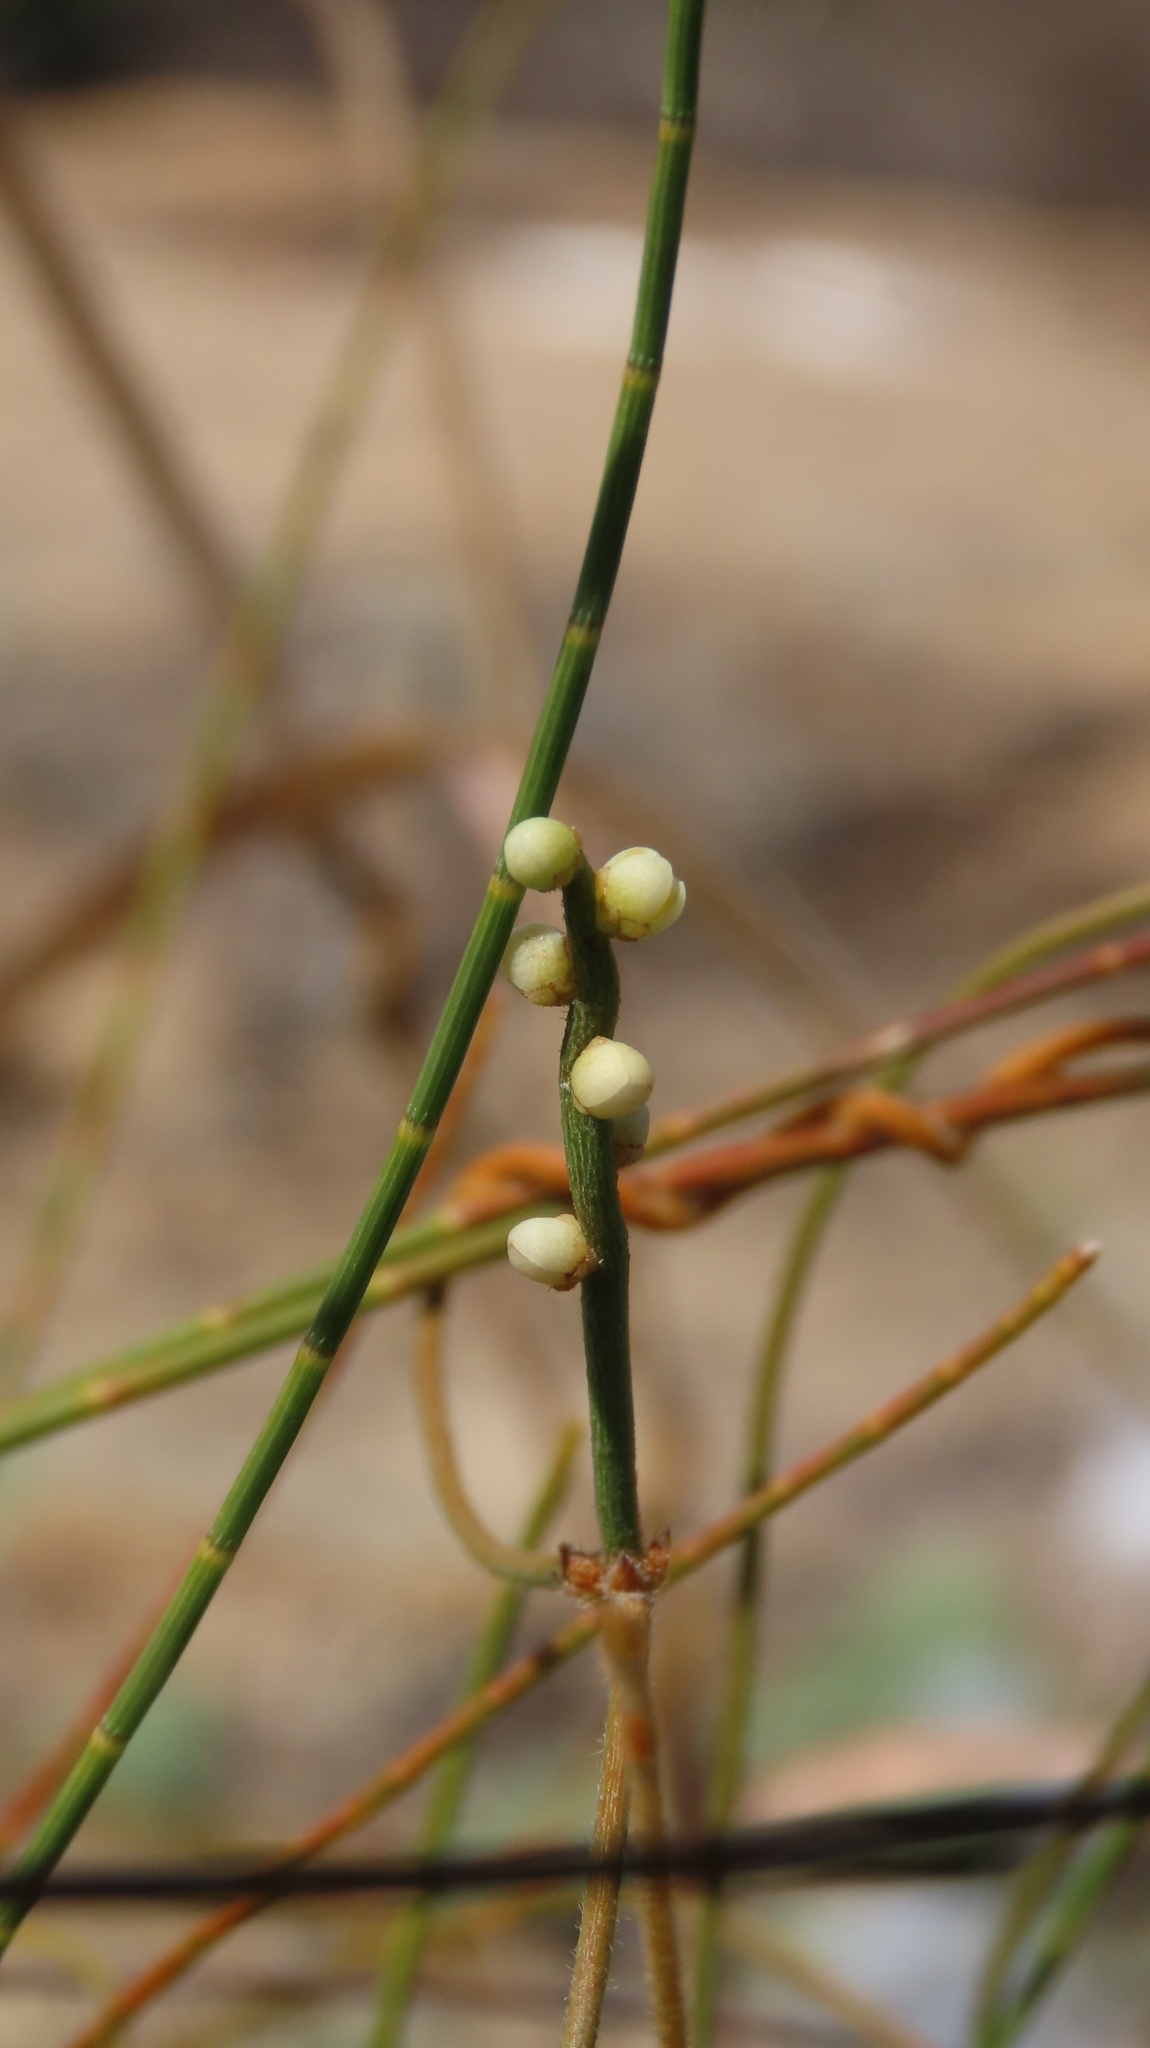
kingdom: Plantae
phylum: Tracheophyta
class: Magnoliopsida
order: Laurales
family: Lauraceae
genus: Cassytha
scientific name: Cassytha filiformis
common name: Dodder-laurel
